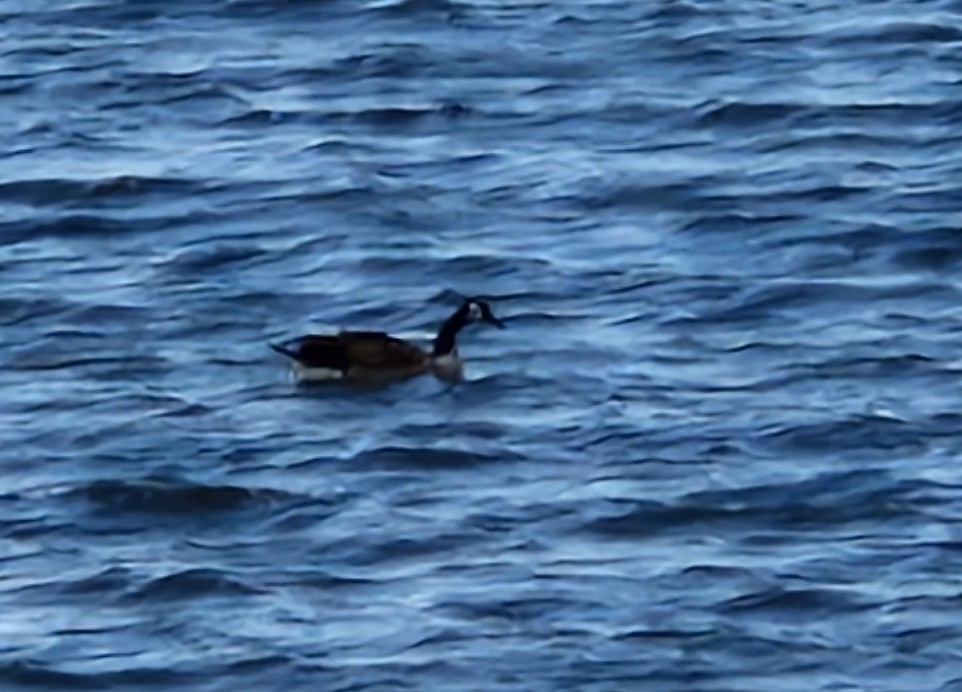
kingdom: Animalia
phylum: Chordata
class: Aves
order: Anseriformes
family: Anatidae
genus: Branta
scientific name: Branta canadensis
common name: Canada goose
